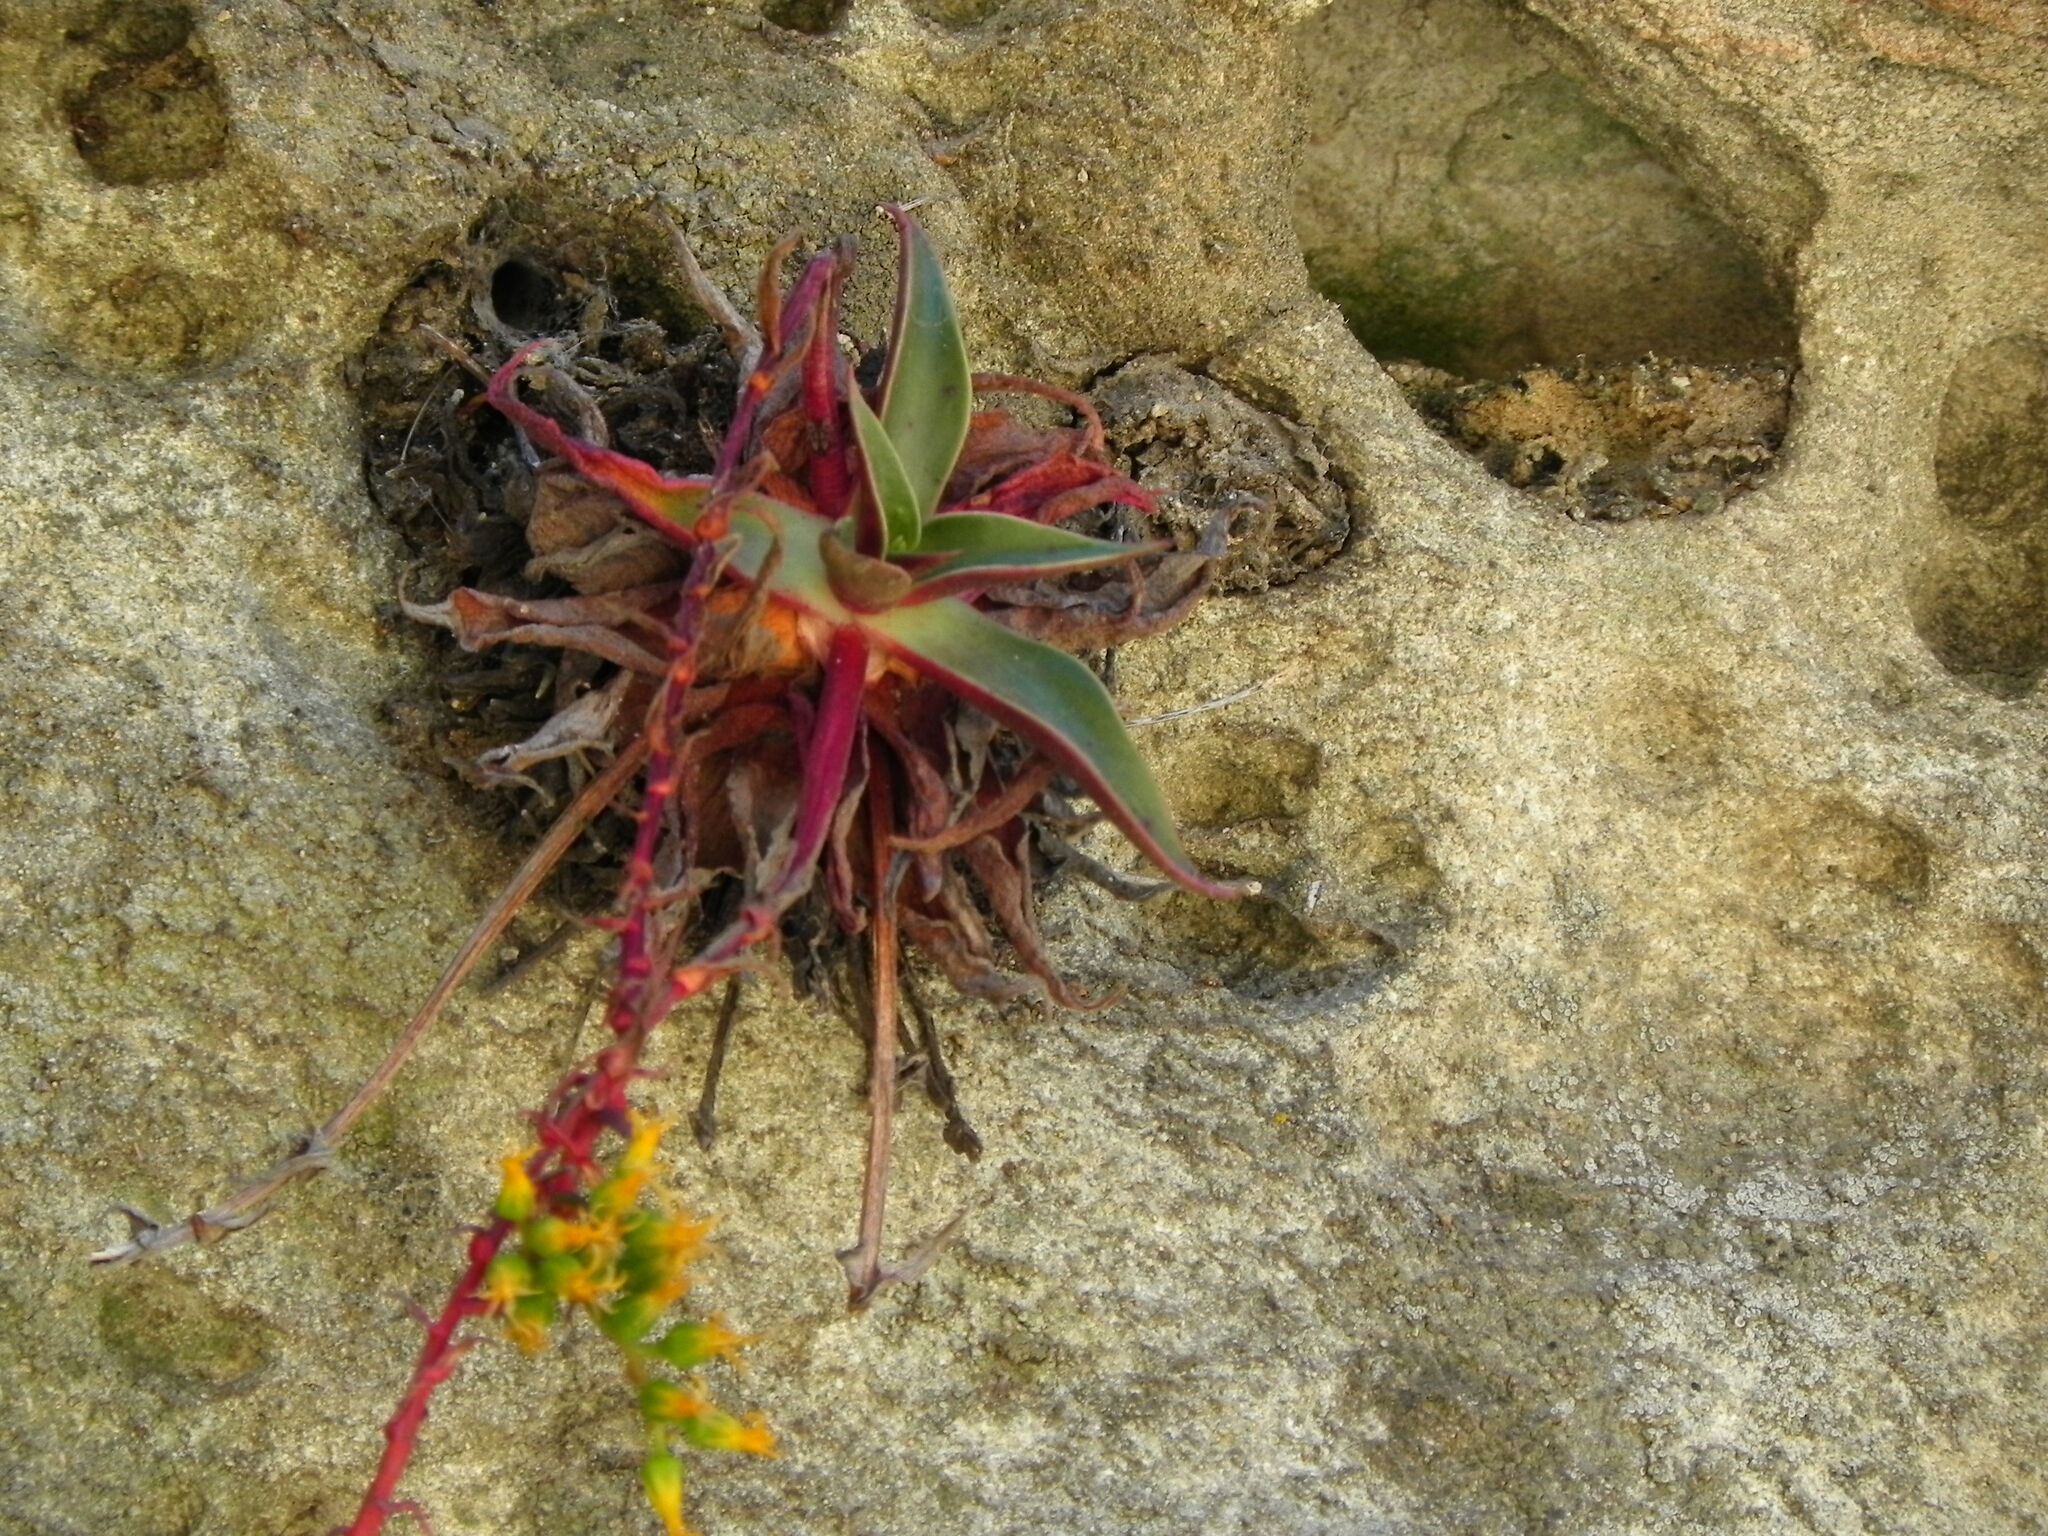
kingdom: Plantae
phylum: Tracheophyta
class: Magnoliopsida
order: Saxifragales
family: Crassulaceae
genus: Dudleya
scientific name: Dudleya cymosa
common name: Canyon dudleya
